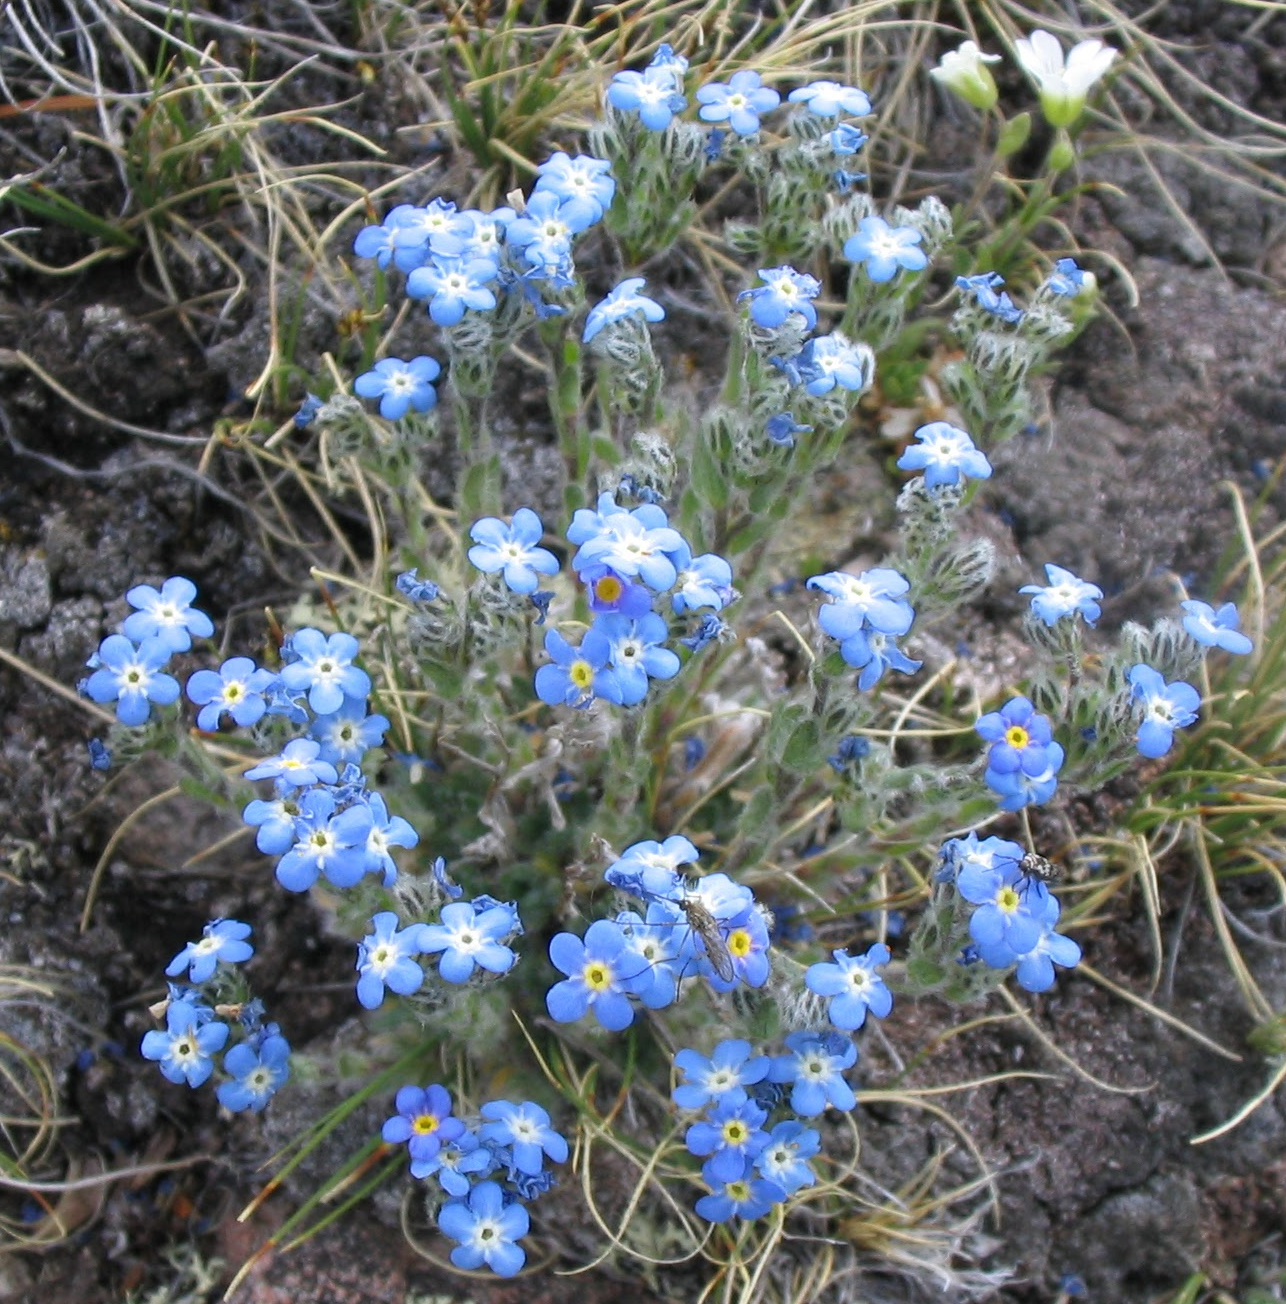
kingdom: Plantae
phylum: Tracheophyta
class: Magnoliopsida
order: Boraginales
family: Boraginaceae
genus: Eritrichium
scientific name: Eritrichium argenteum
